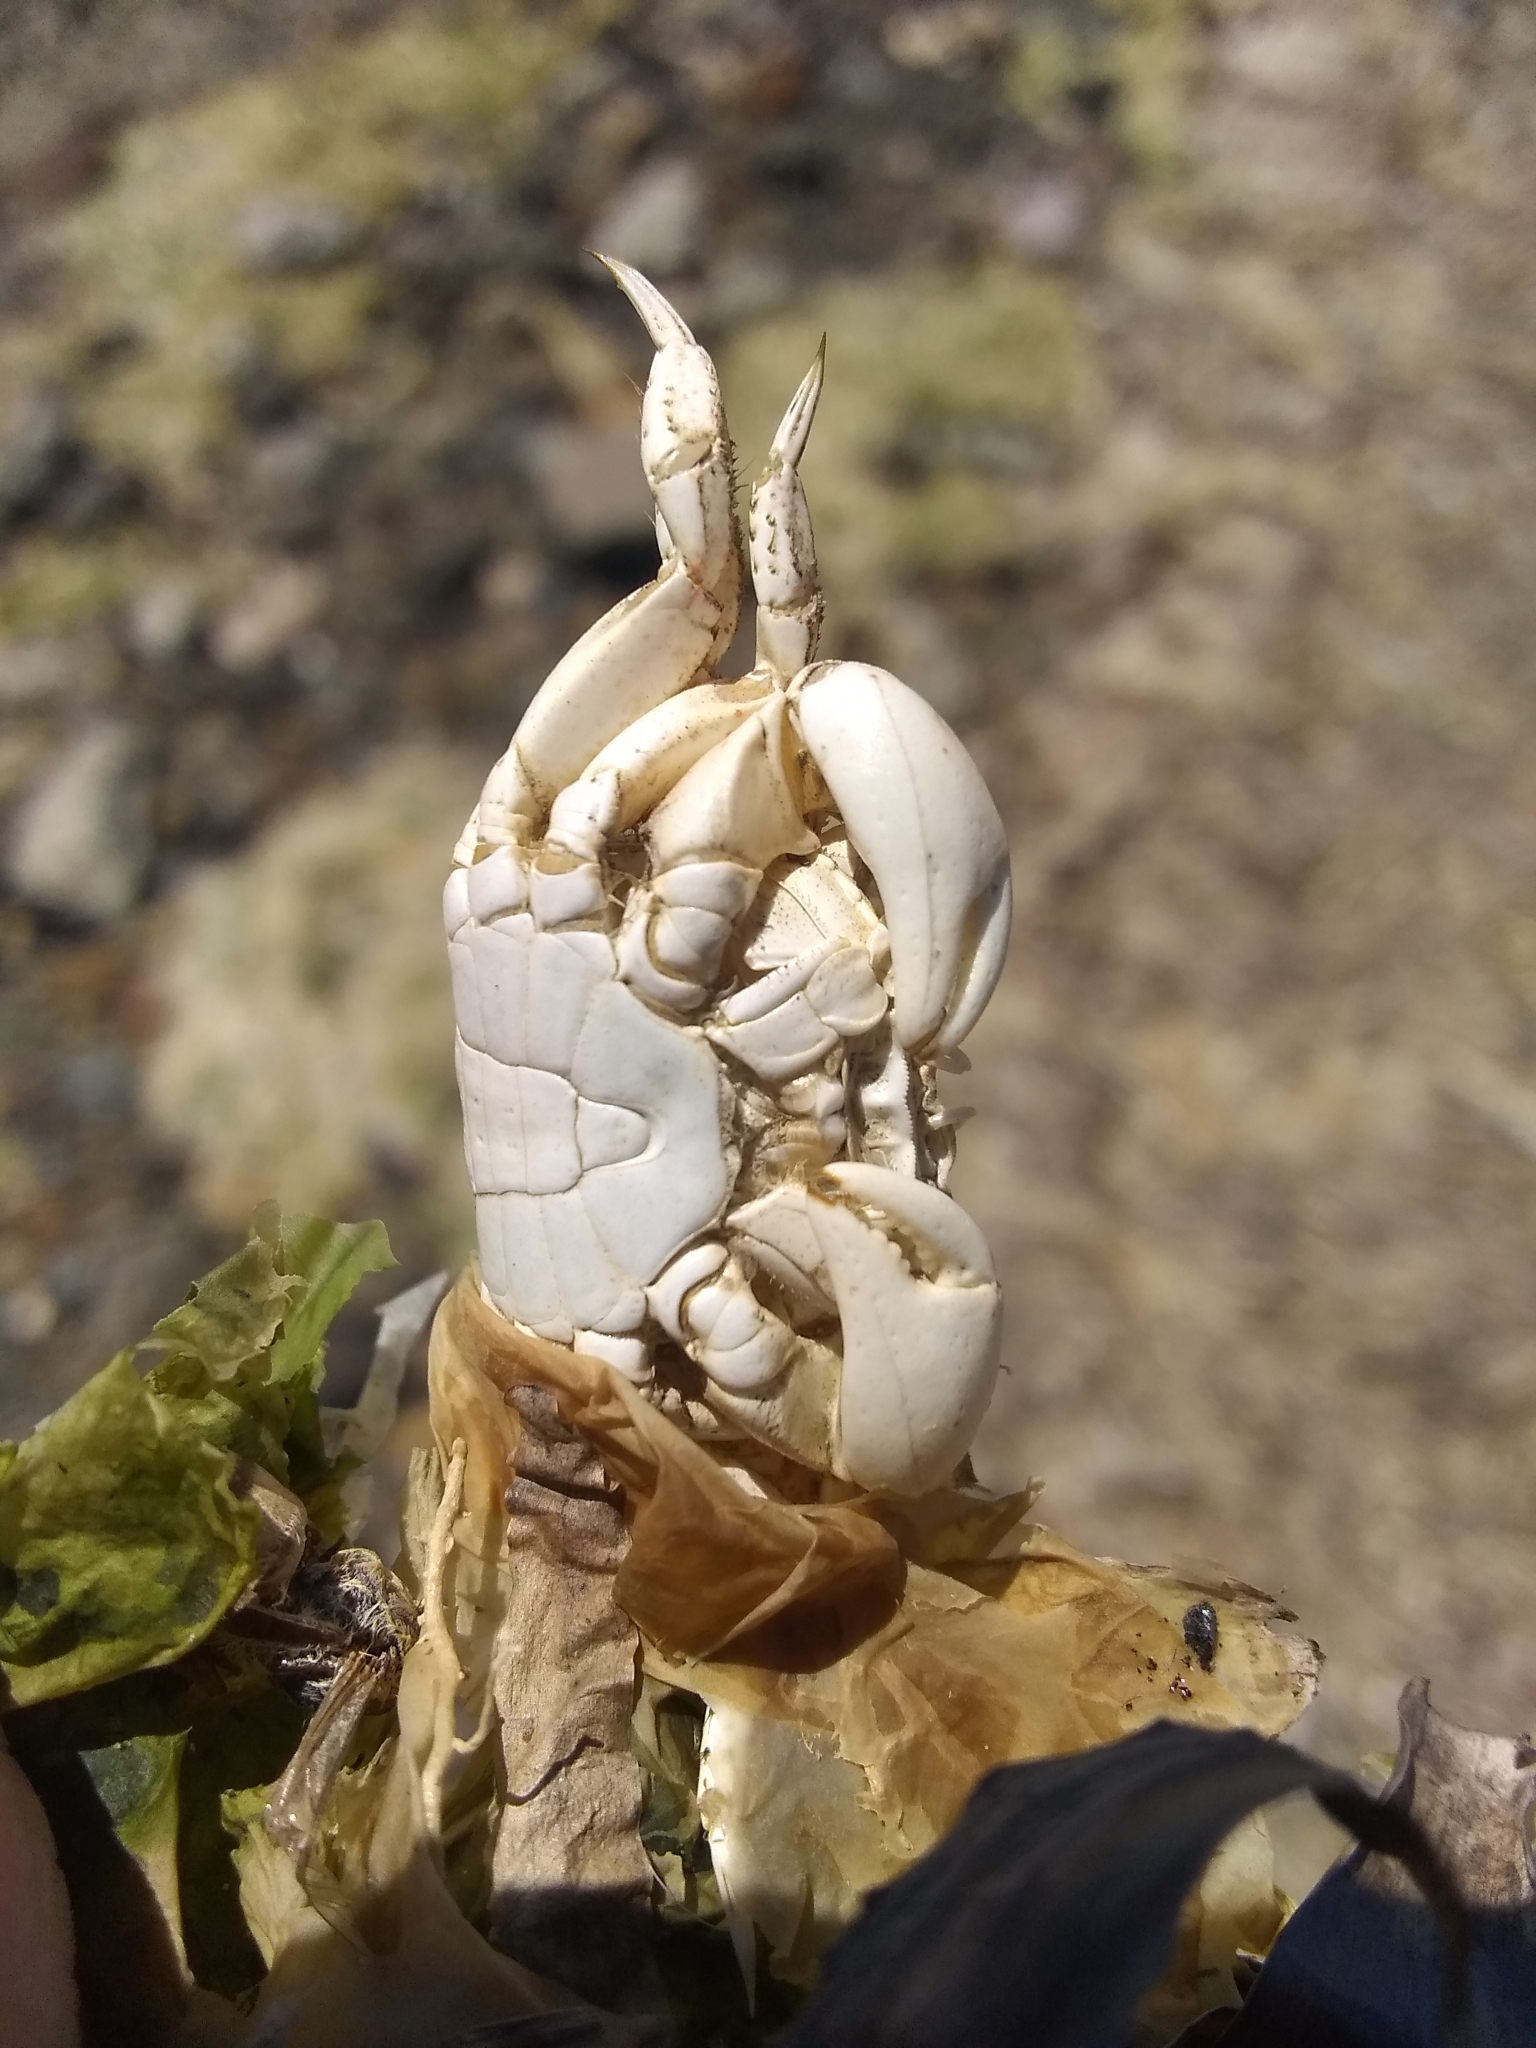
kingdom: Animalia
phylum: Arthropoda
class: Malacostraca
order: Decapoda
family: Varunidae
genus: Hemigrapsus
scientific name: Hemigrapsus oregonensis
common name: Yellow shore crab
